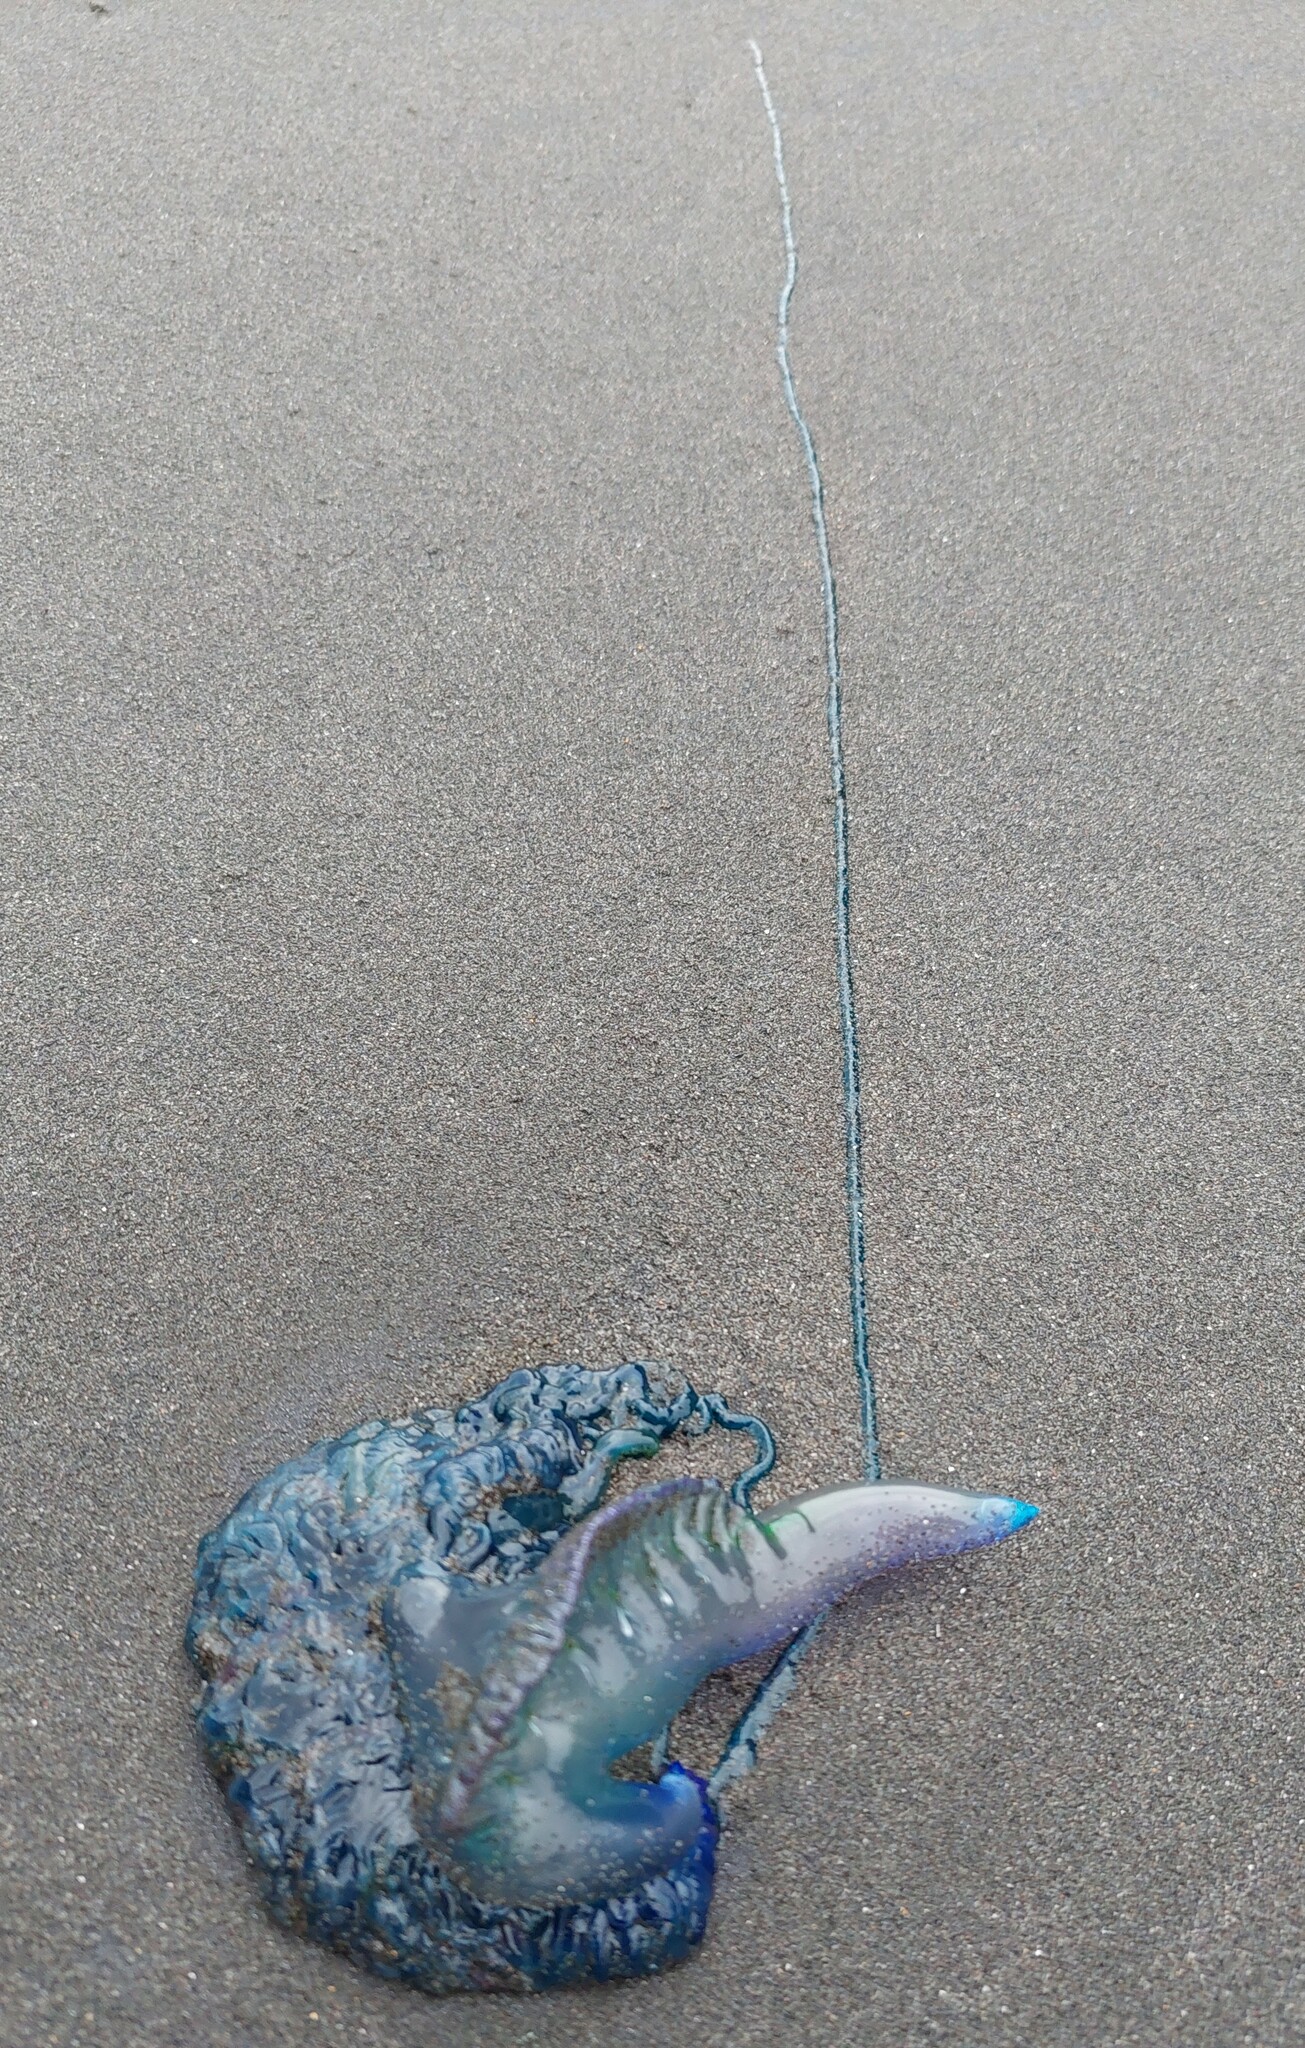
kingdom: Animalia
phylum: Cnidaria
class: Hydrozoa
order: Siphonophorae
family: Physaliidae
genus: Physalia
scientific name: Physalia physalis
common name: Portuguese man-of-war
